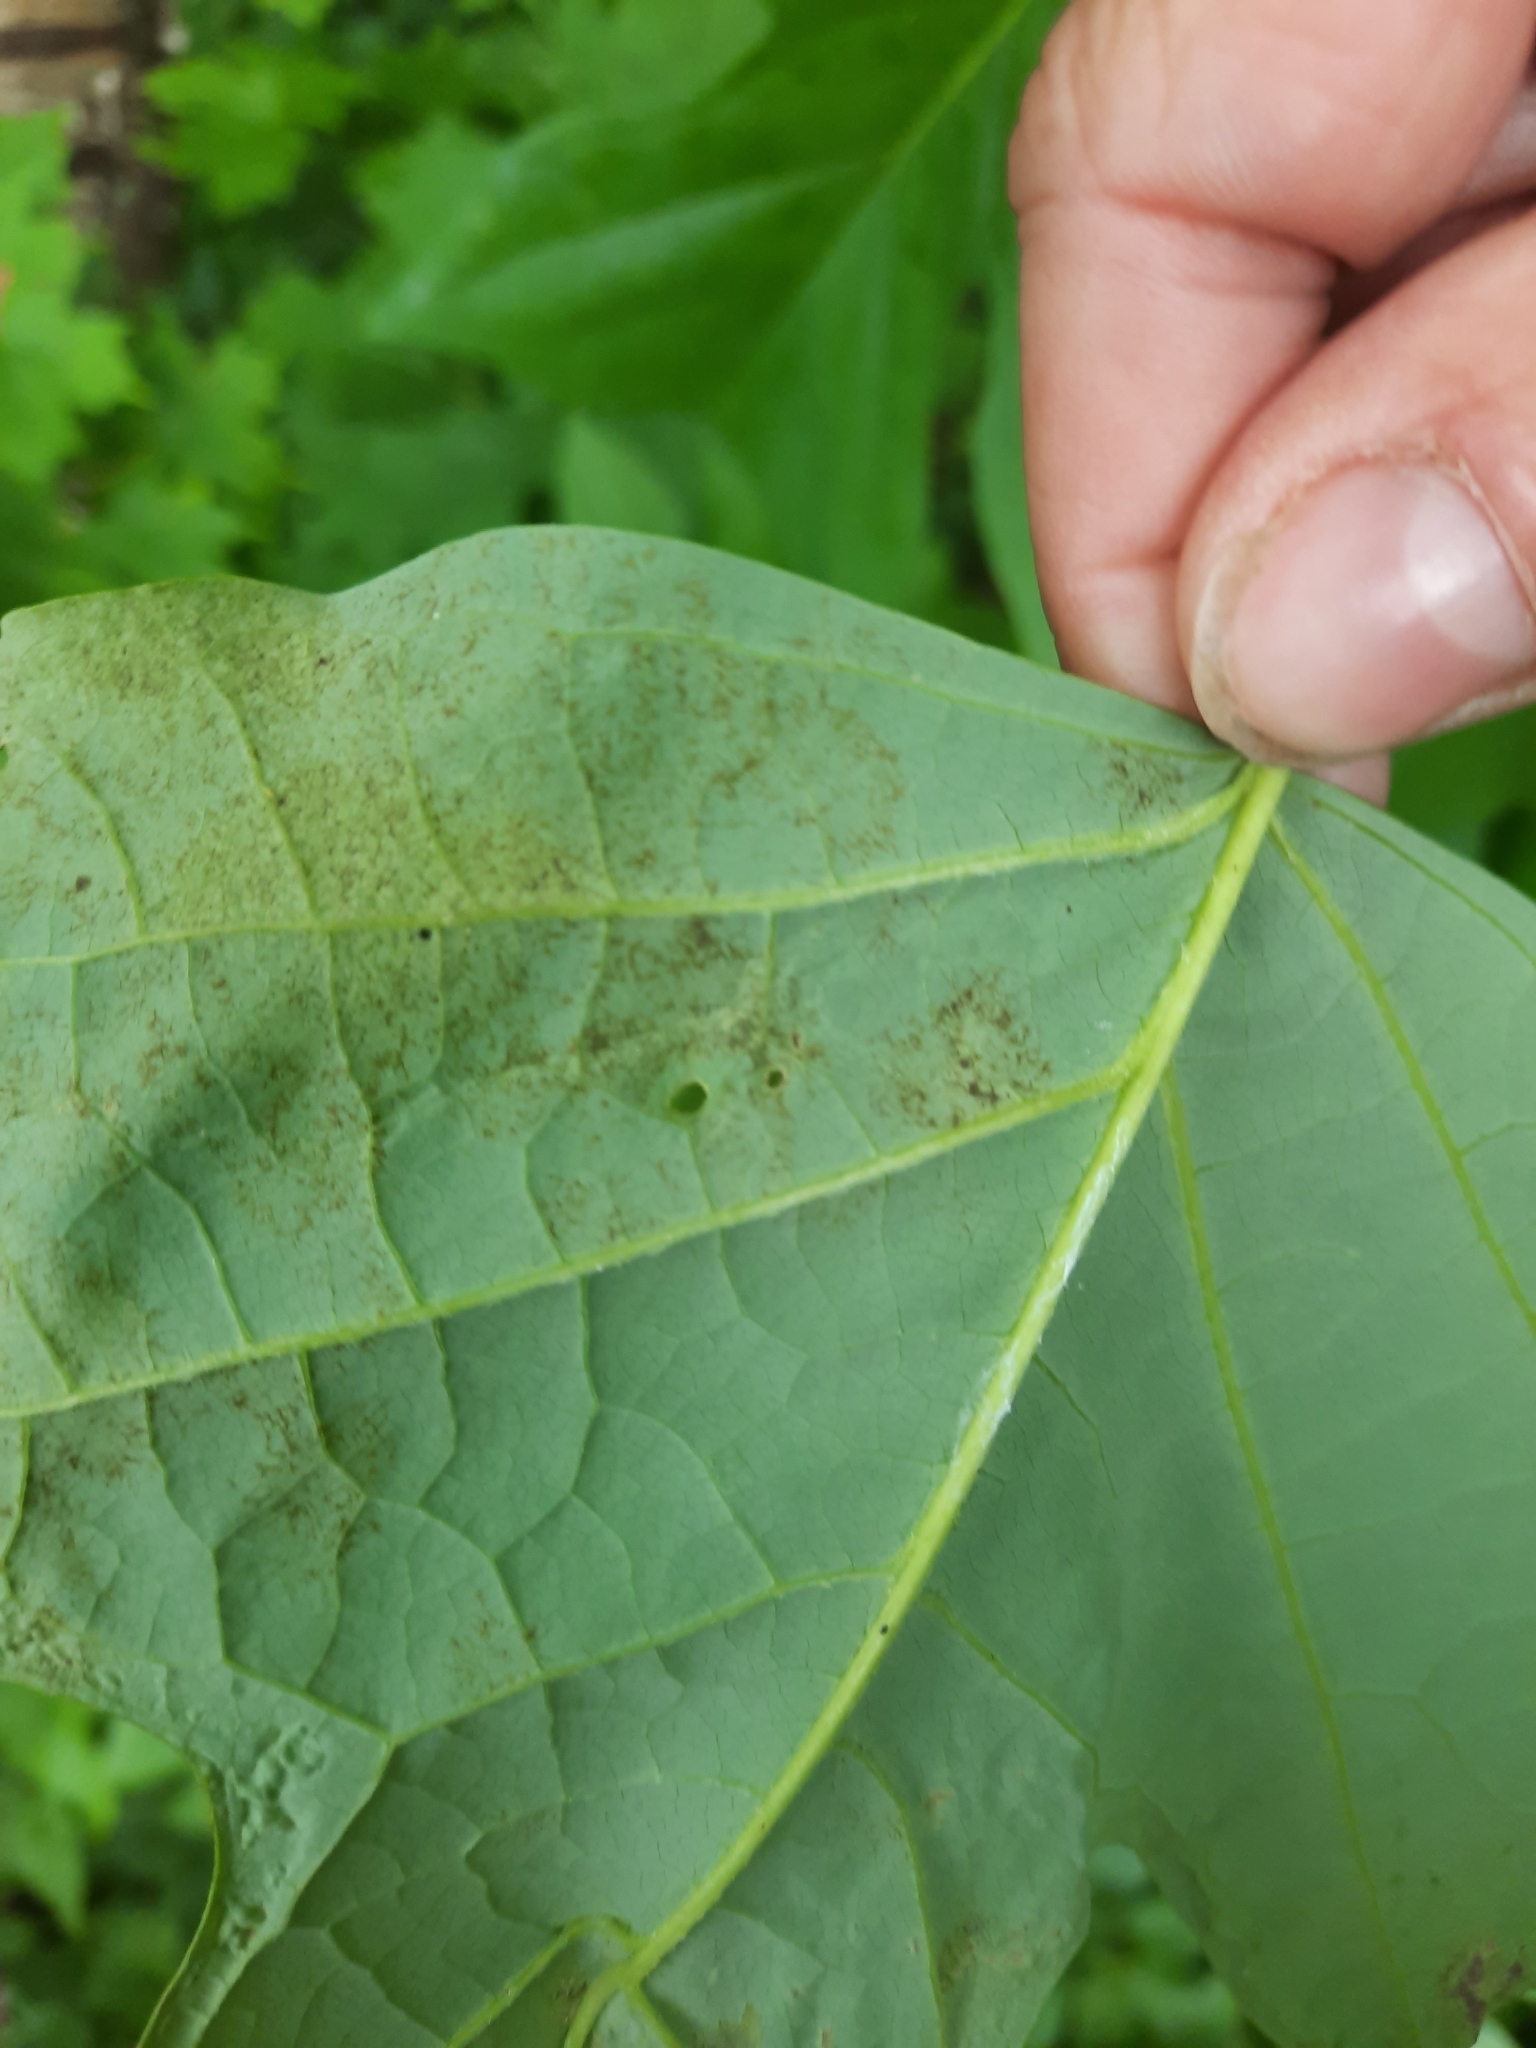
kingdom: Animalia
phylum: Arthropoda
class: Insecta
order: Lepidoptera
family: Gracillariidae
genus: Phyllocnistis
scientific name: Phyllocnistis liriodendronella
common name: Tulip tree leaf miner
